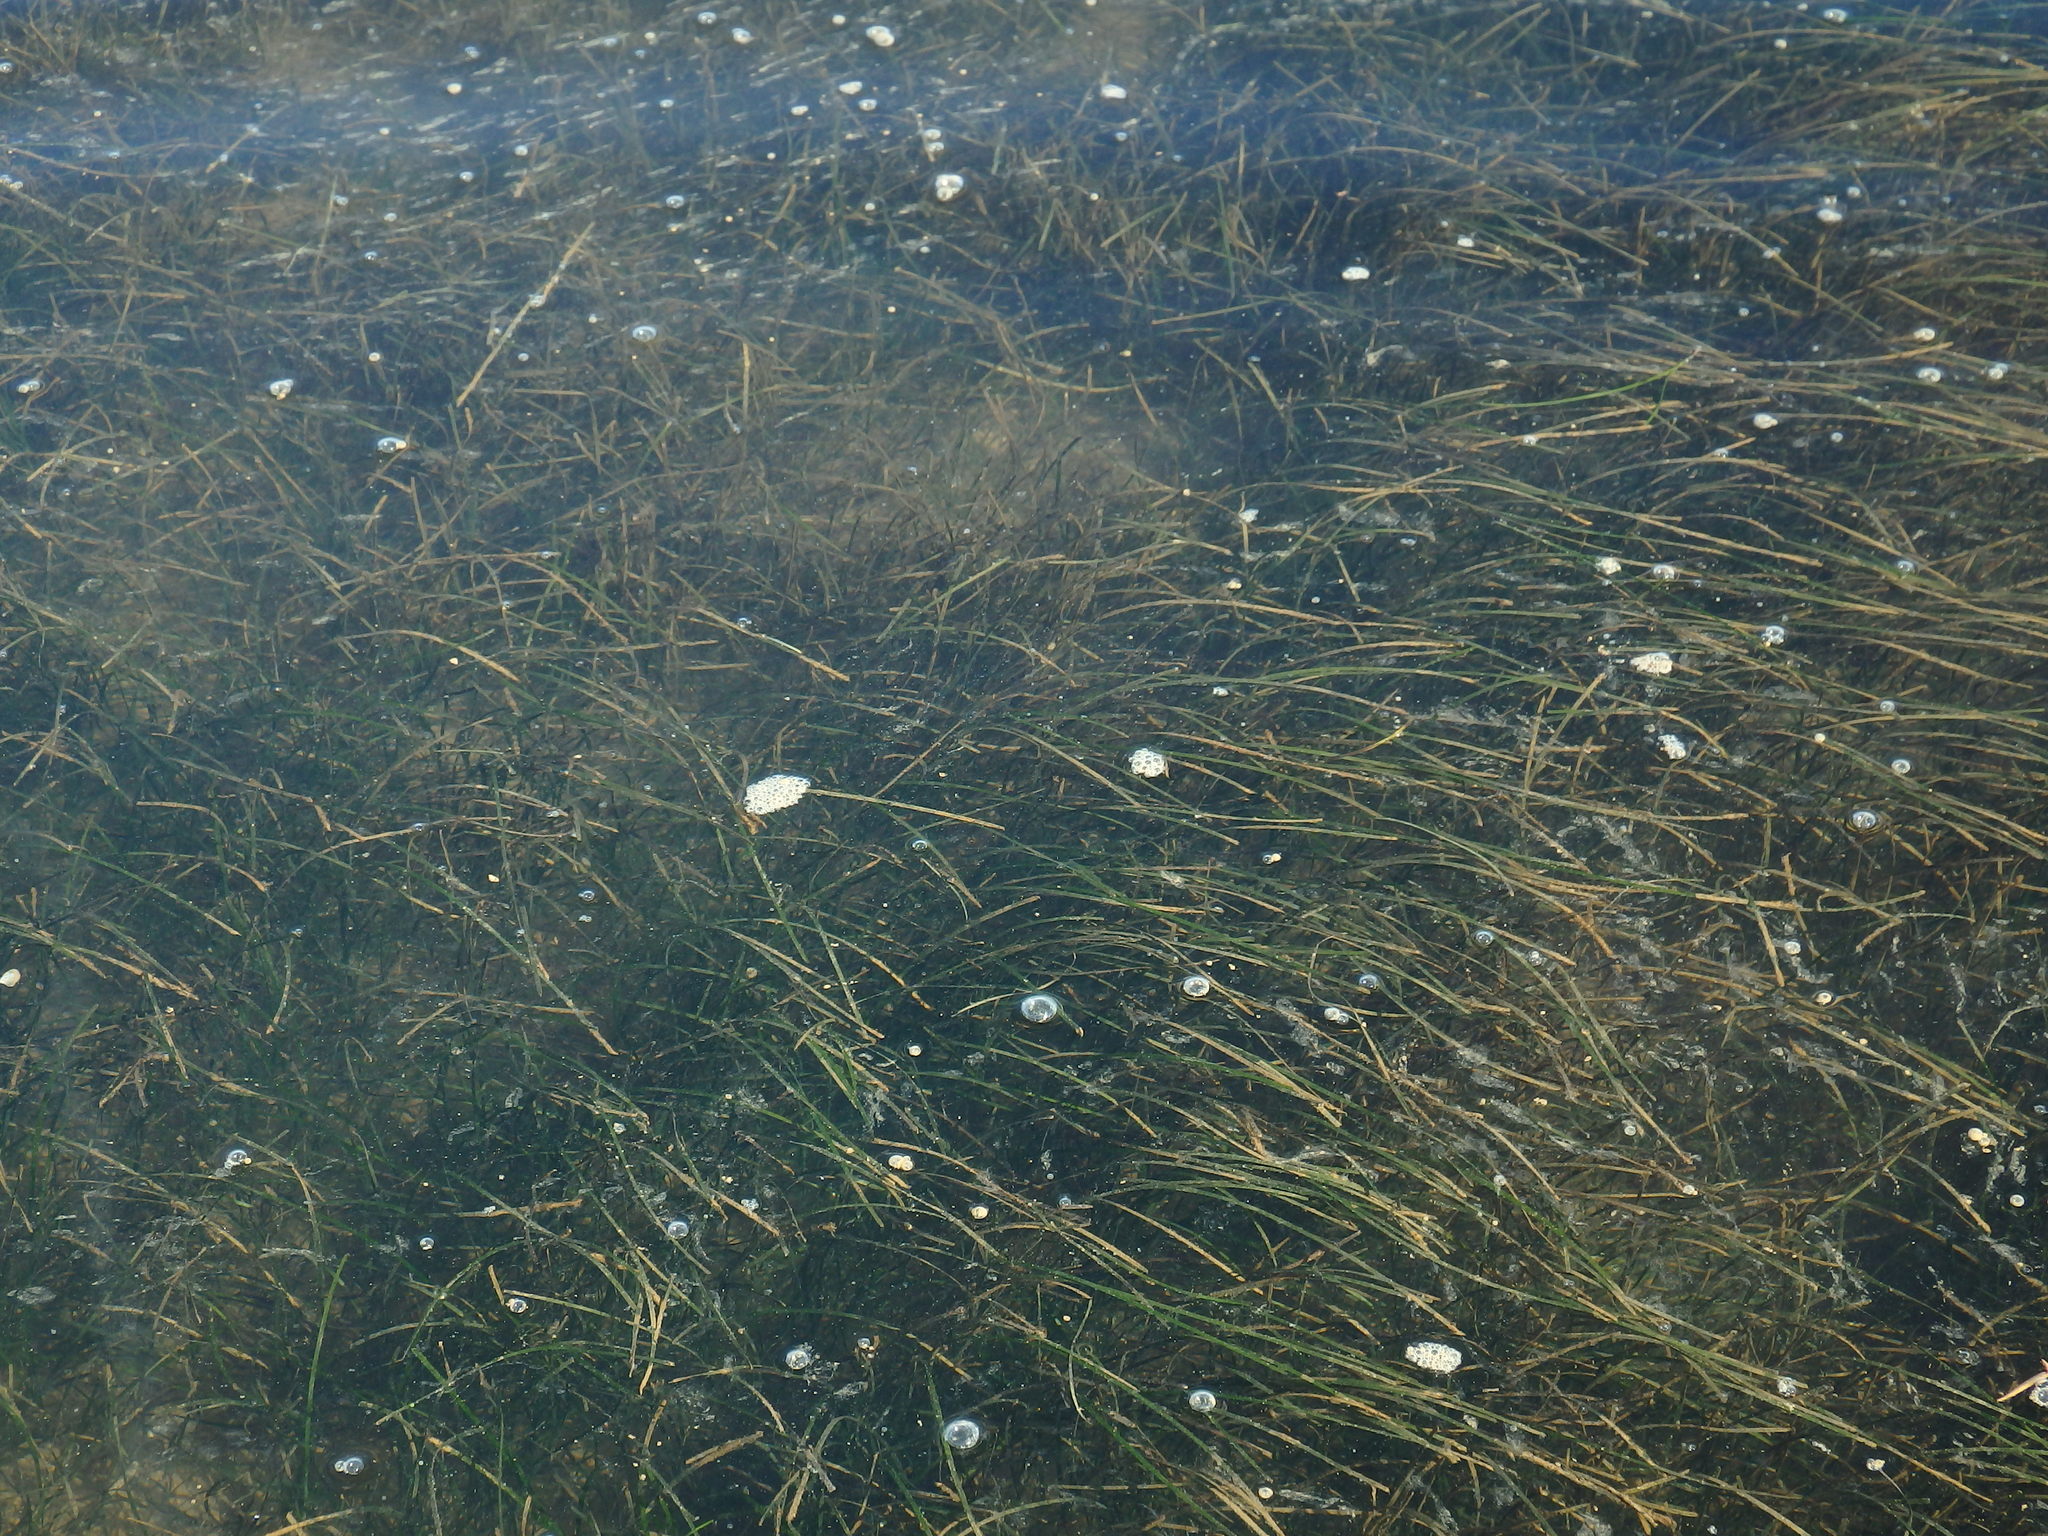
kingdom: Plantae
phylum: Tracheophyta
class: Liliopsida
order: Alismatales
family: Zosteraceae
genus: Zostera
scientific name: Zostera noltii
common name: Dwarf eelgrass
